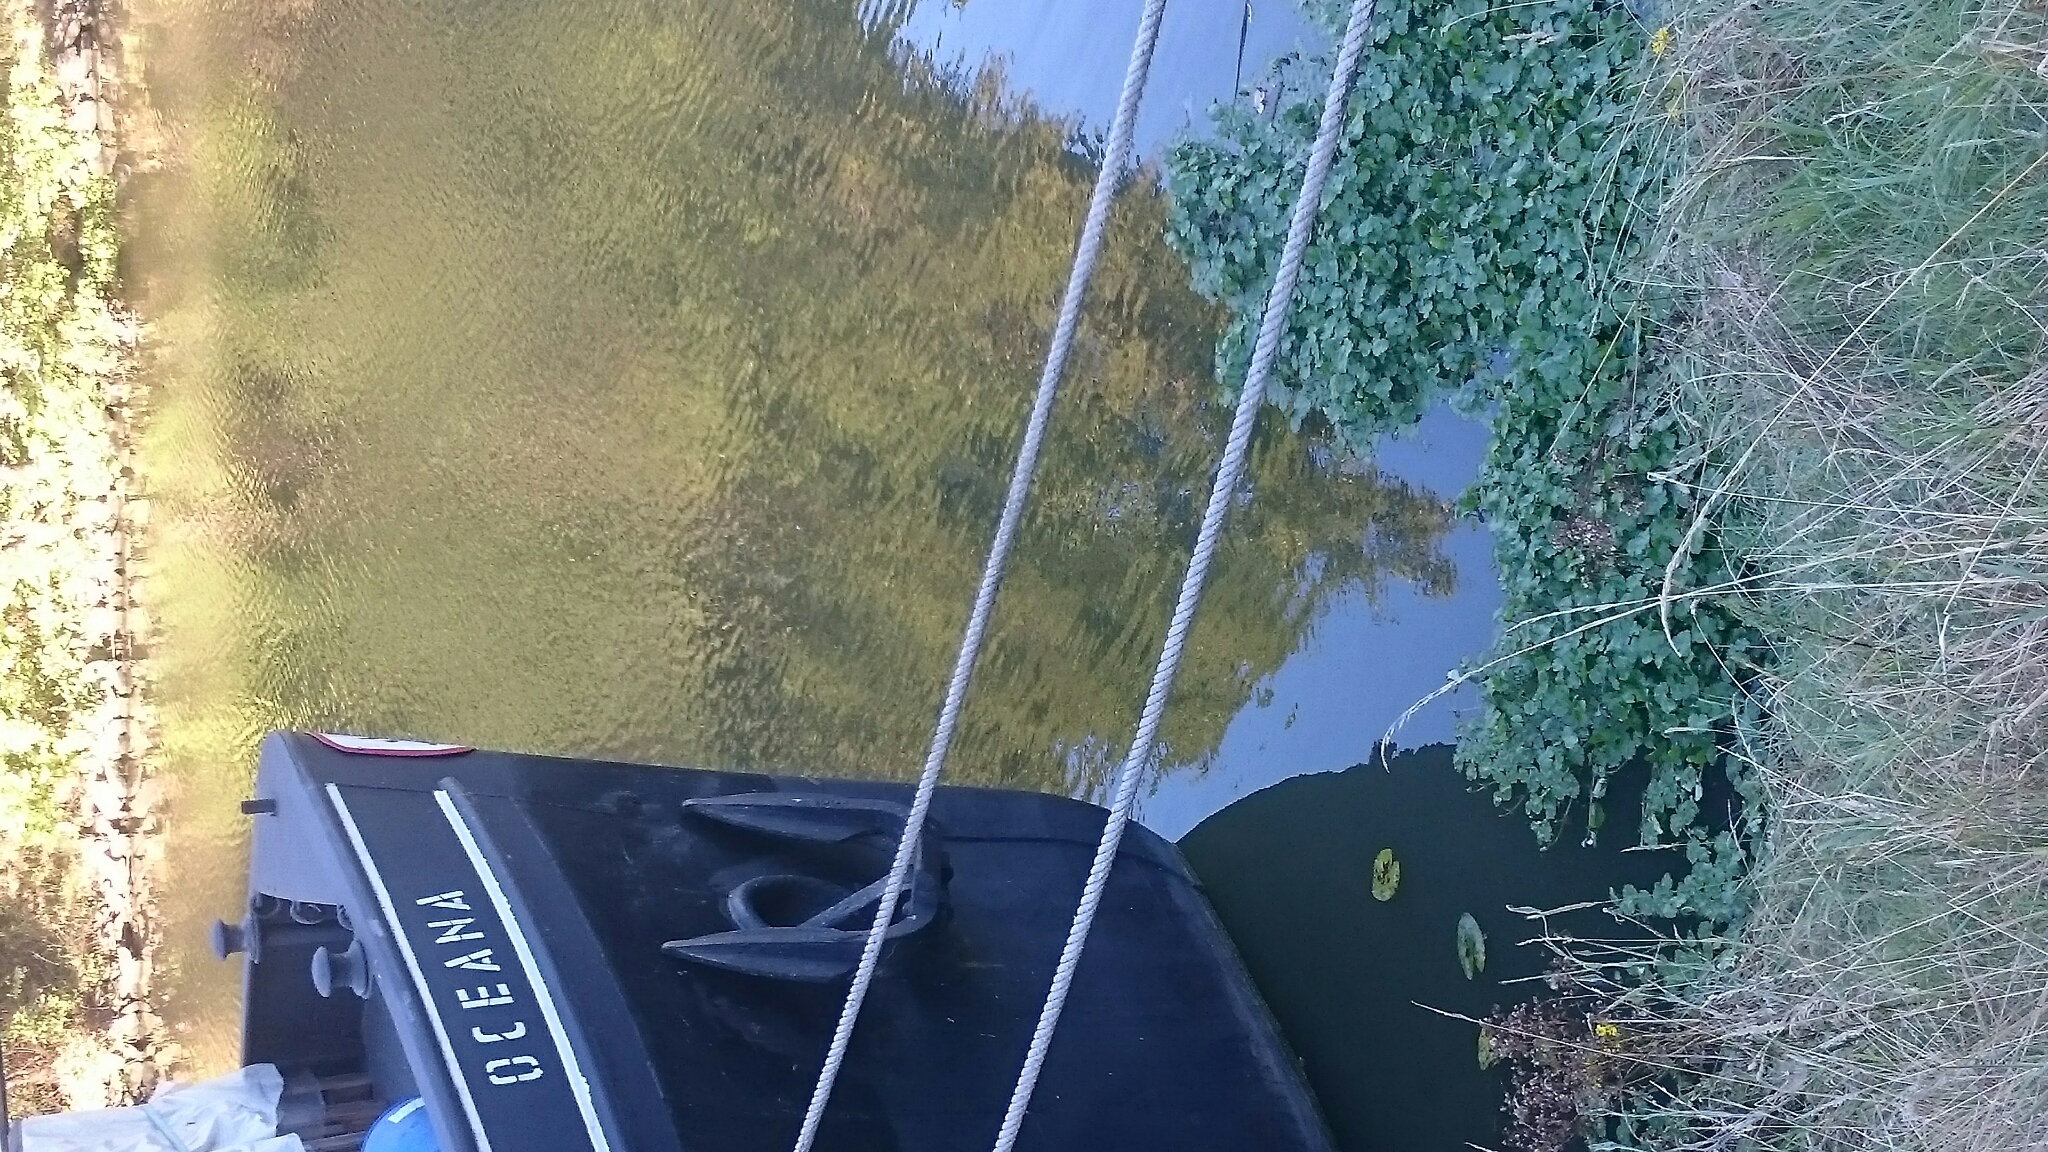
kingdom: Plantae
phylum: Tracheophyta
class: Magnoliopsida
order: Apiales
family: Araliaceae
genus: Hydrocotyle
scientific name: Hydrocotyle ranunculoides
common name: Floating pennywort
